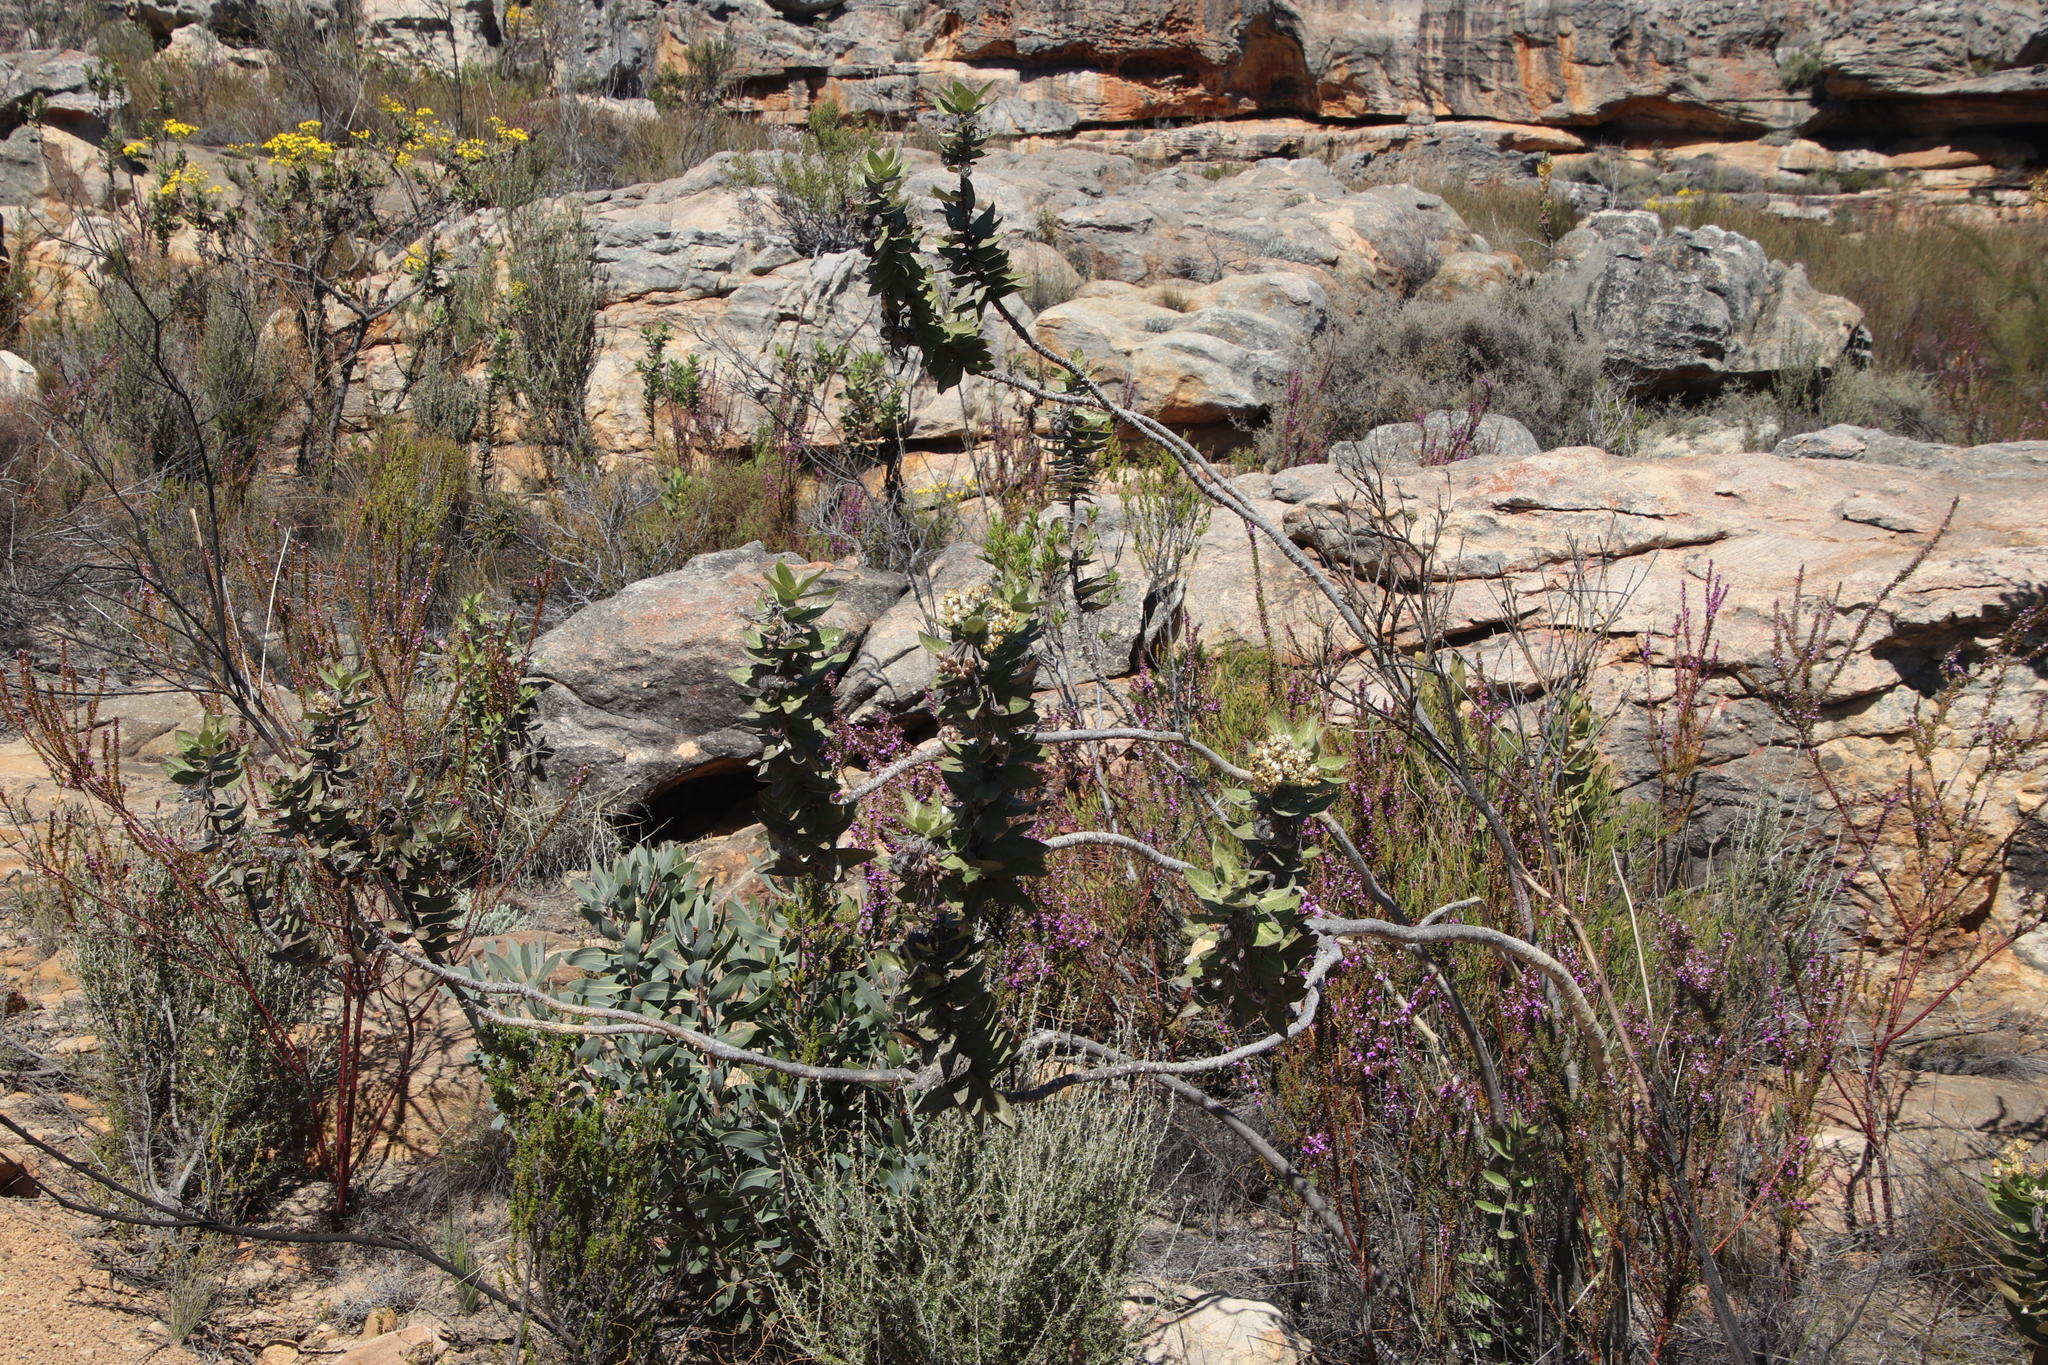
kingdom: Plantae
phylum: Tracheophyta
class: Magnoliopsida
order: Gentianales
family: Apocynaceae
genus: Gomphocarpus
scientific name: Gomphocarpus cancellatus
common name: Wild cotton
